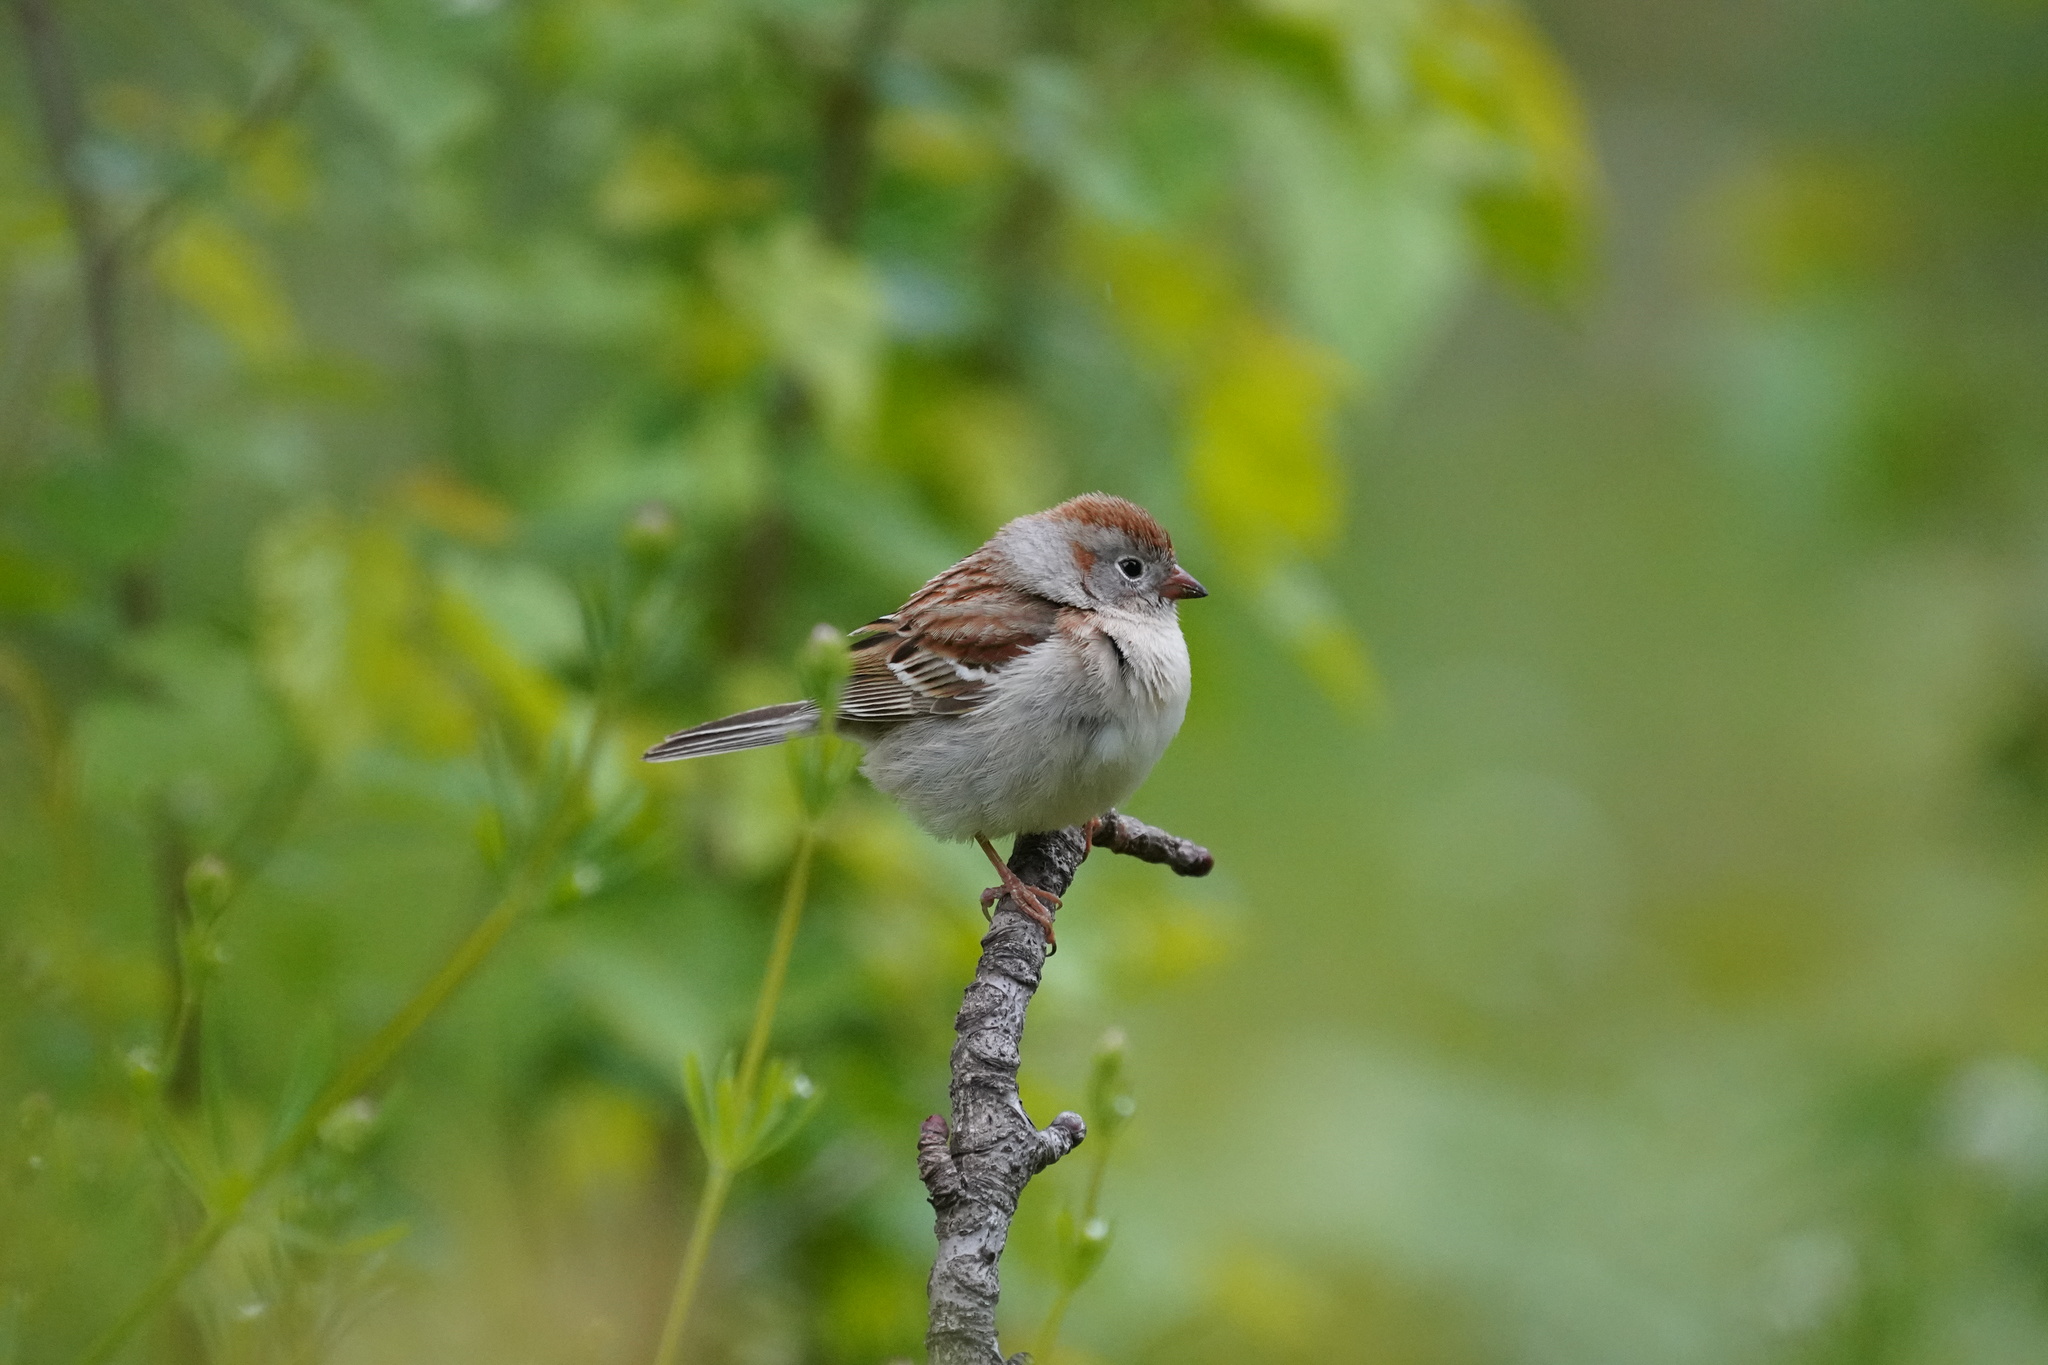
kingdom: Animalia
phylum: Chordata
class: Aves
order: Passeriformes
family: Passerellidae
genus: Spizella
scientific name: Spizella pusilla
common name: Field sparrow
